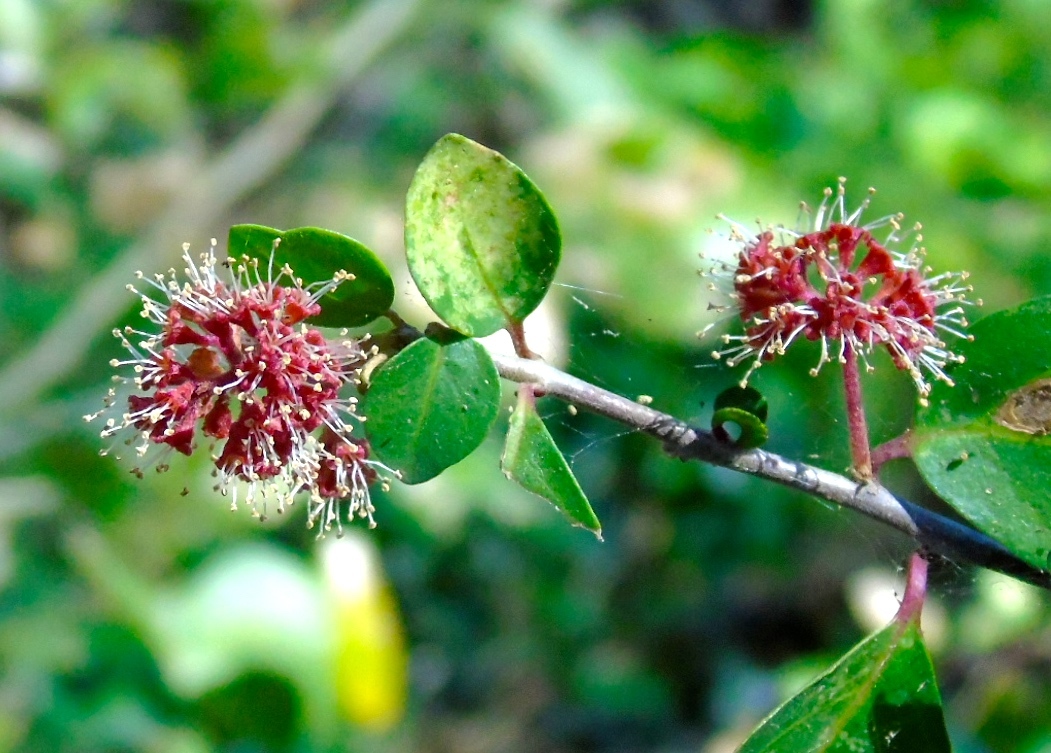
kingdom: Plantae
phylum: Tracheophyta
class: Magnoliopsida
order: Caryophyllales
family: Nyctaginaceae
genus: Pisonia
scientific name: Pisonia capitata
